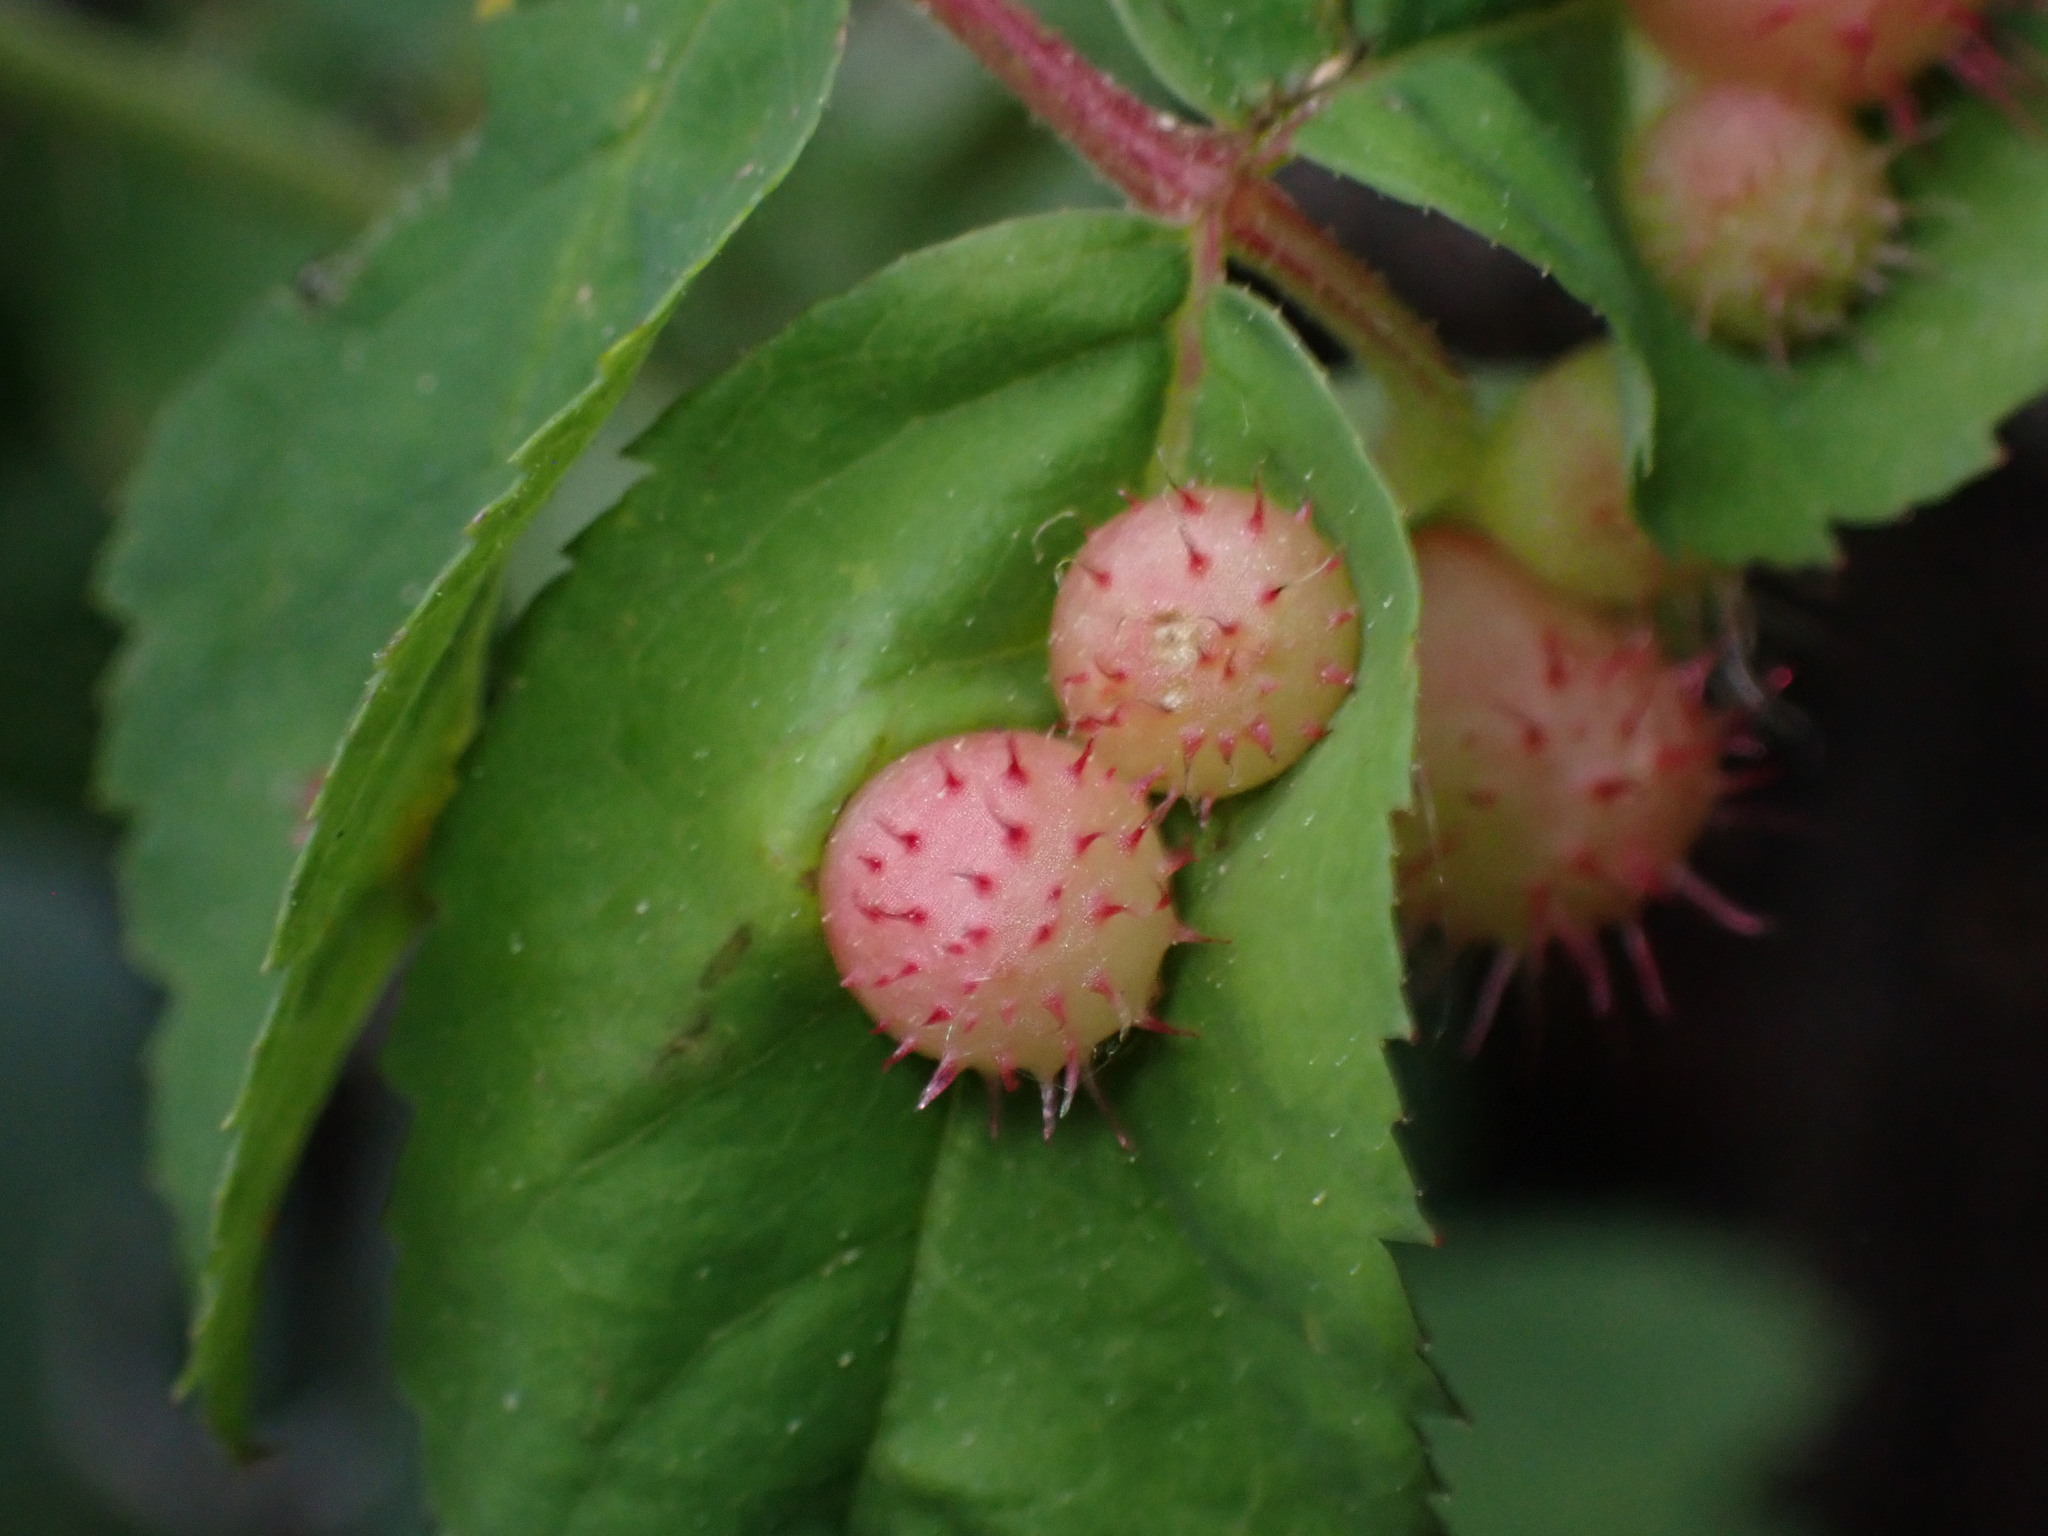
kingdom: Animalia
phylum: Arthropoda
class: Insecta
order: Hymenoptera
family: Cynipidae
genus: Diplolepis
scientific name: Diplolepis polita
